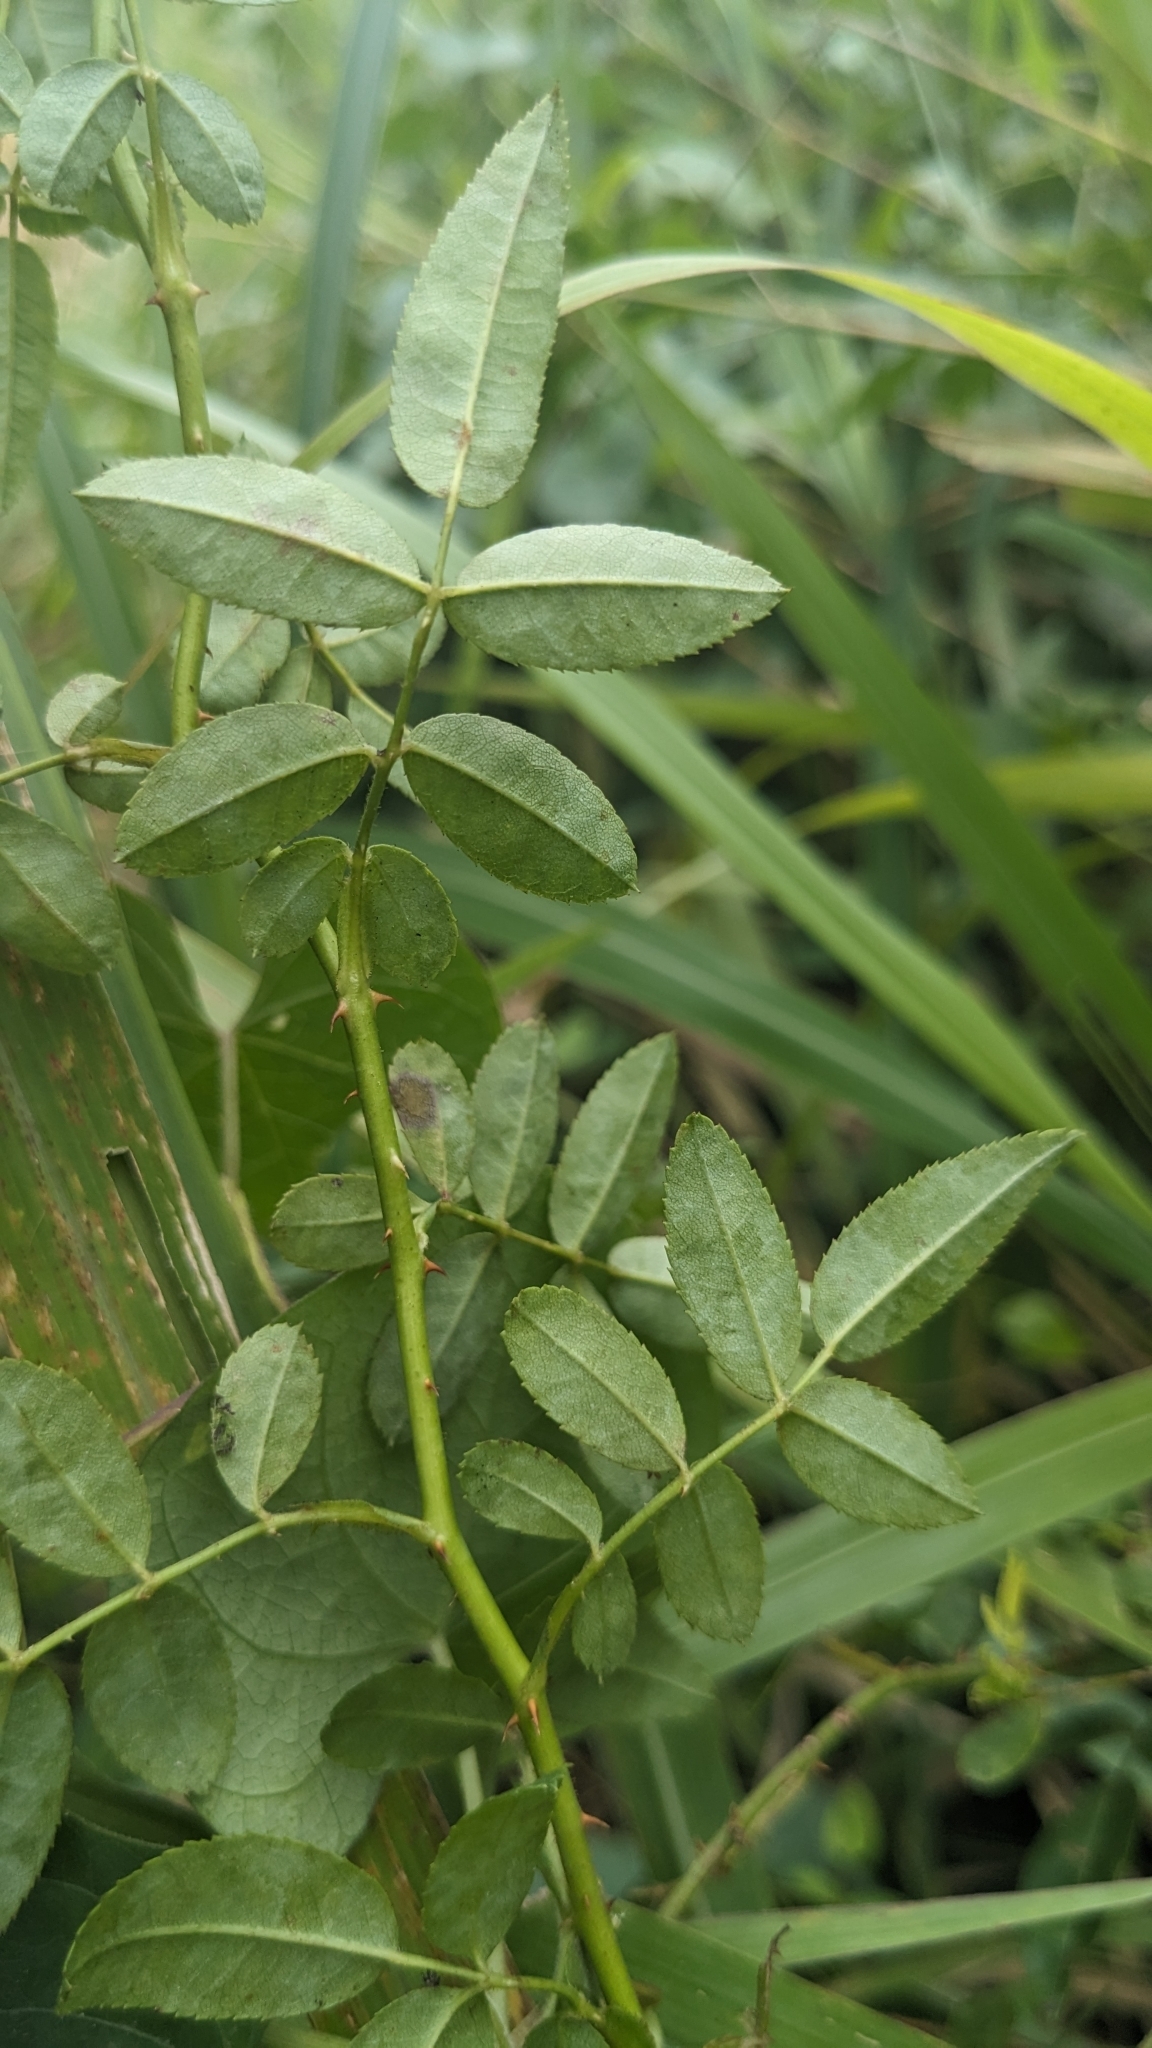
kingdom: Plantae
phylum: Tracheophyta
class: Magnoliopsida
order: Rosales
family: Rosaceae
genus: Rosa
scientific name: Rosa kwangtungensis
